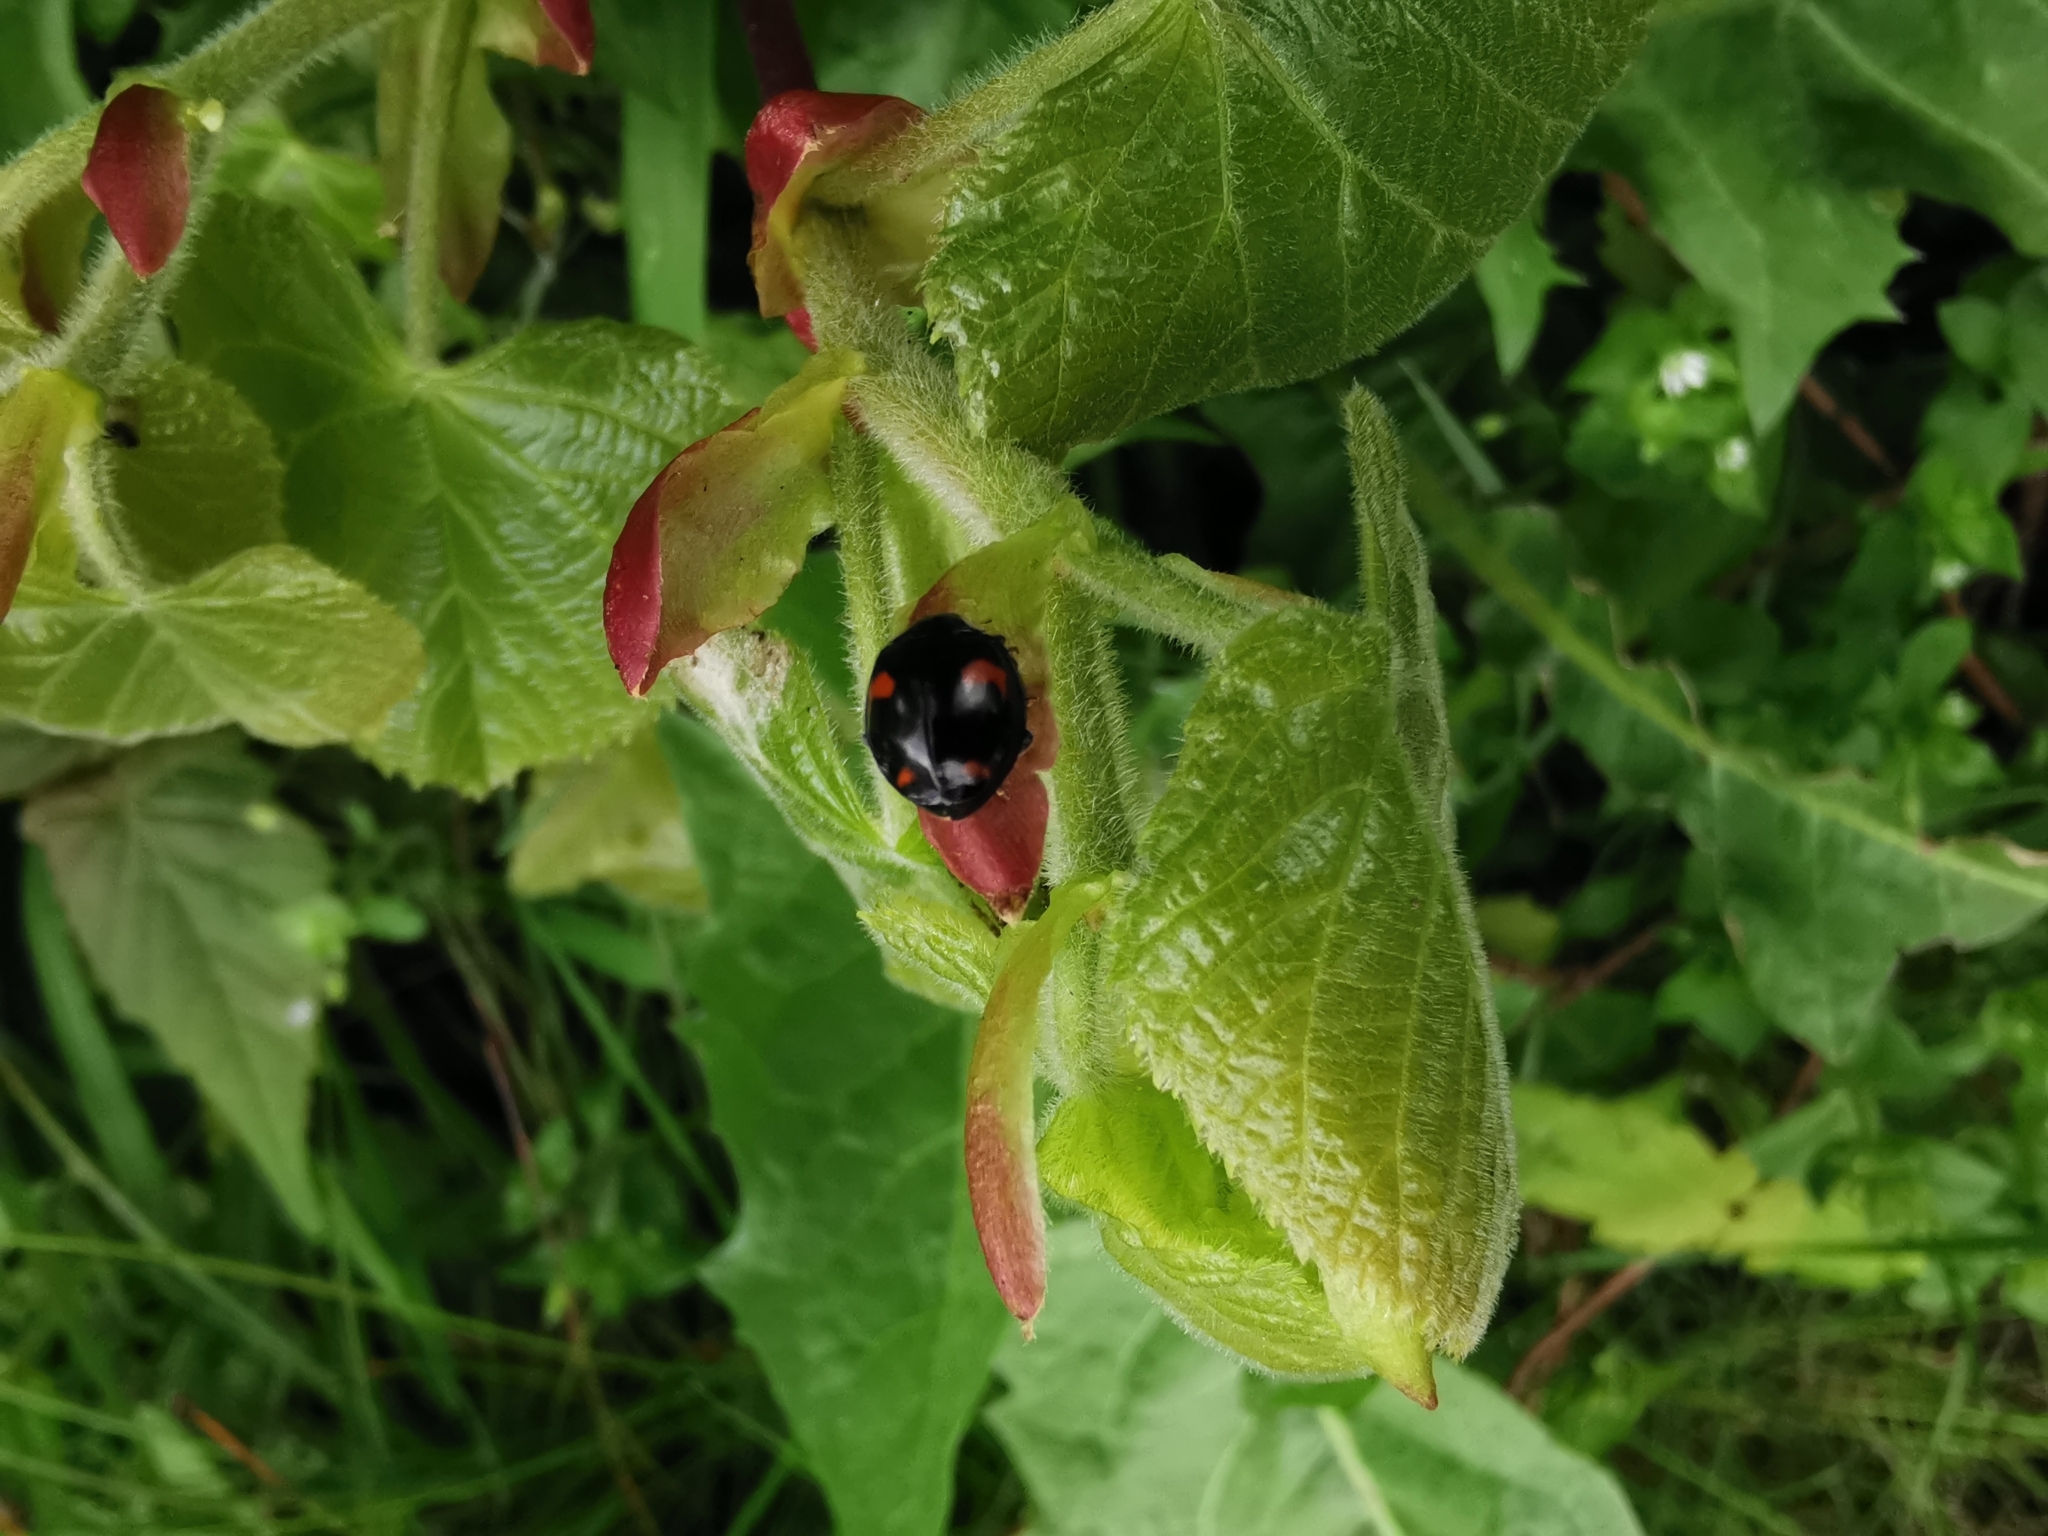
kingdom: Animalia
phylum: Arthropoda
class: Insecta
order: Coleoptera
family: Coccinellidae
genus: Harmonia
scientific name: Harmonia axyridis
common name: Harlequin ladybird
